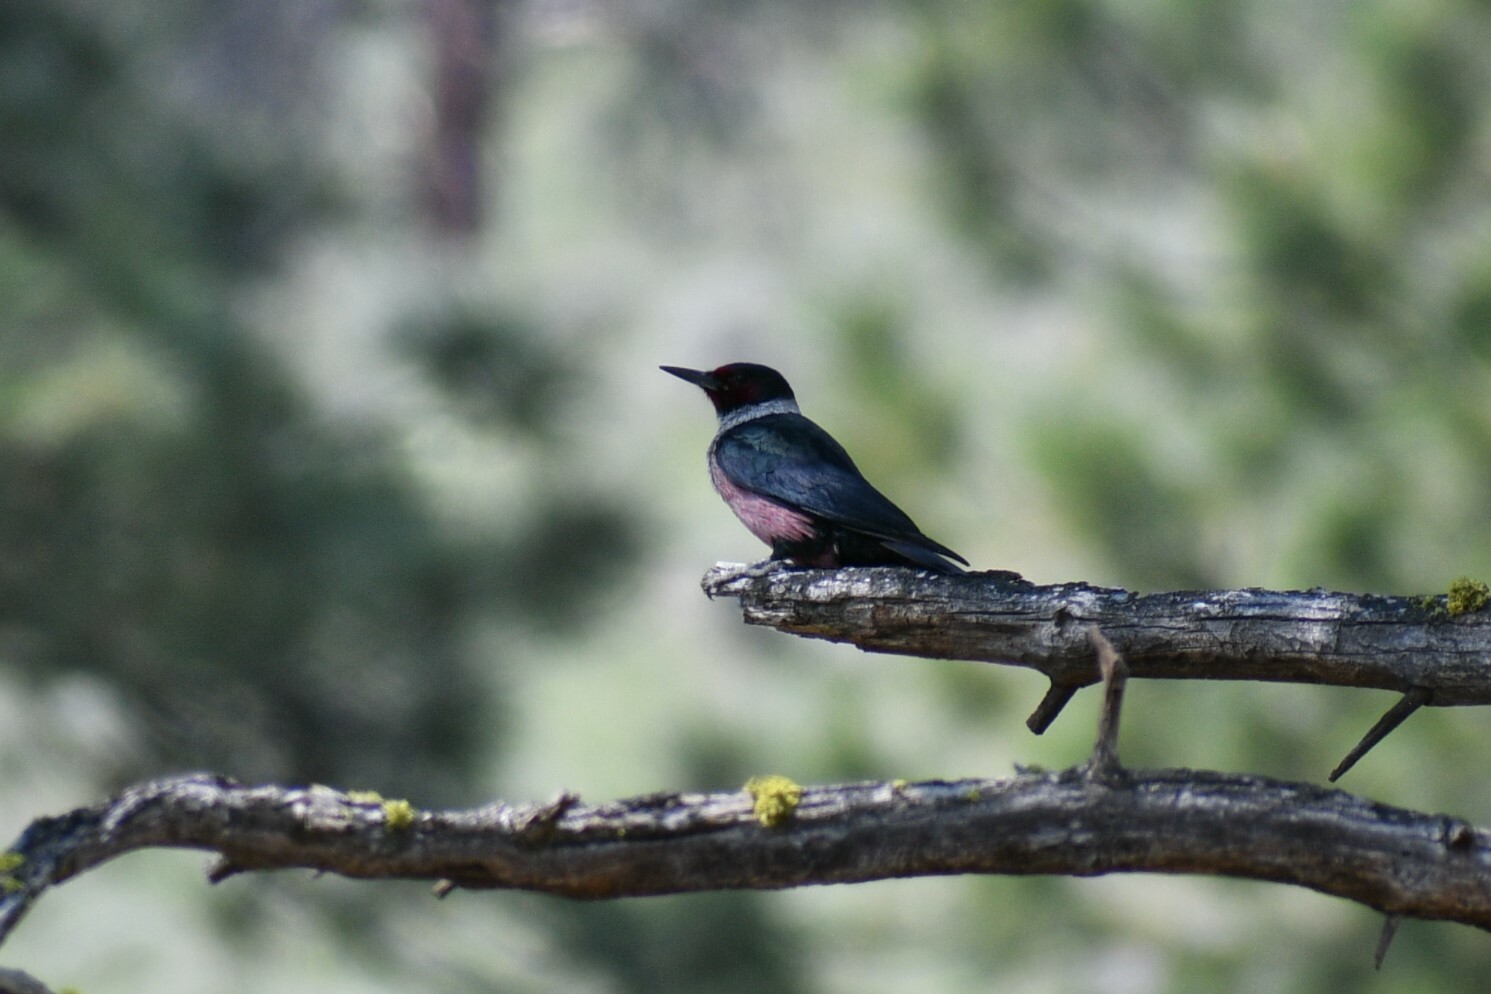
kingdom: Animalia
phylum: Chordata
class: Aves
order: Piciformes
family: Picidae
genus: Melanerpes
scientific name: Melanerpes lewis
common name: Lewis's woodpecker
